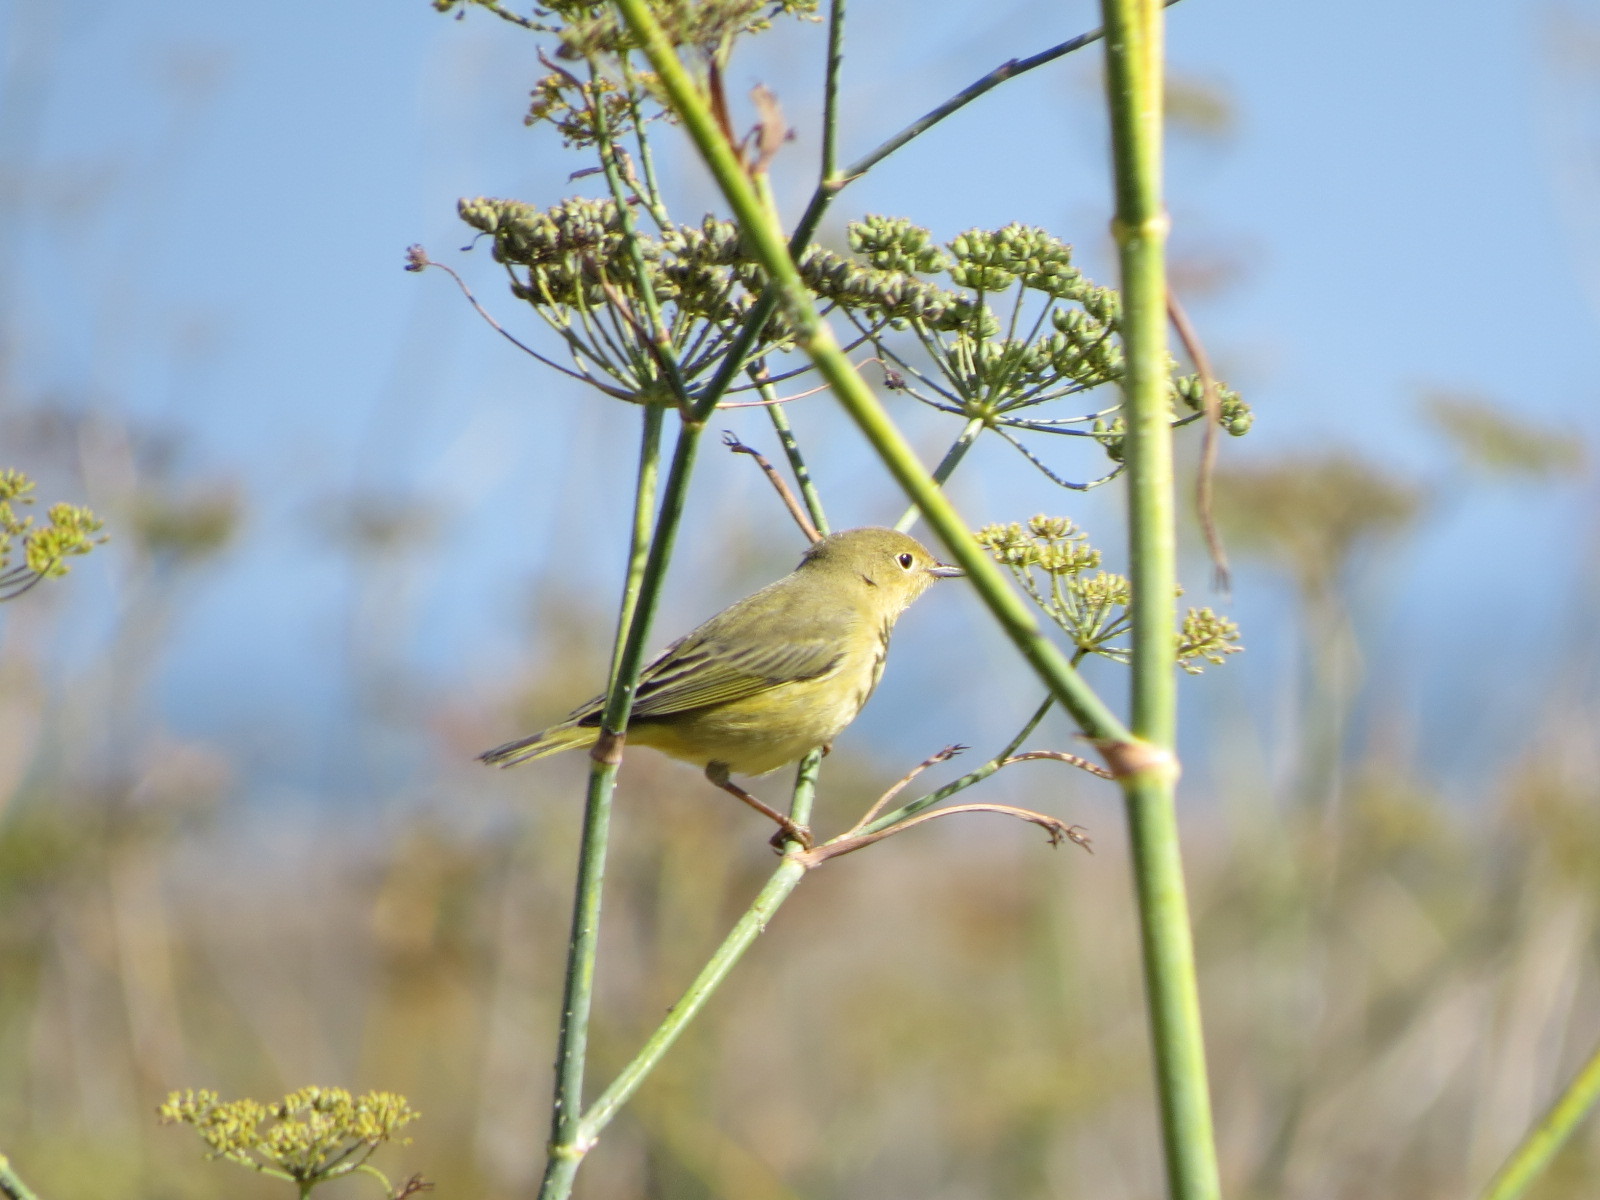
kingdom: Animalia
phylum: Chordata
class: Aves
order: Passeriformes
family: Parulidae
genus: Setophaga
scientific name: Setophaga petechia
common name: Yellow warbler
